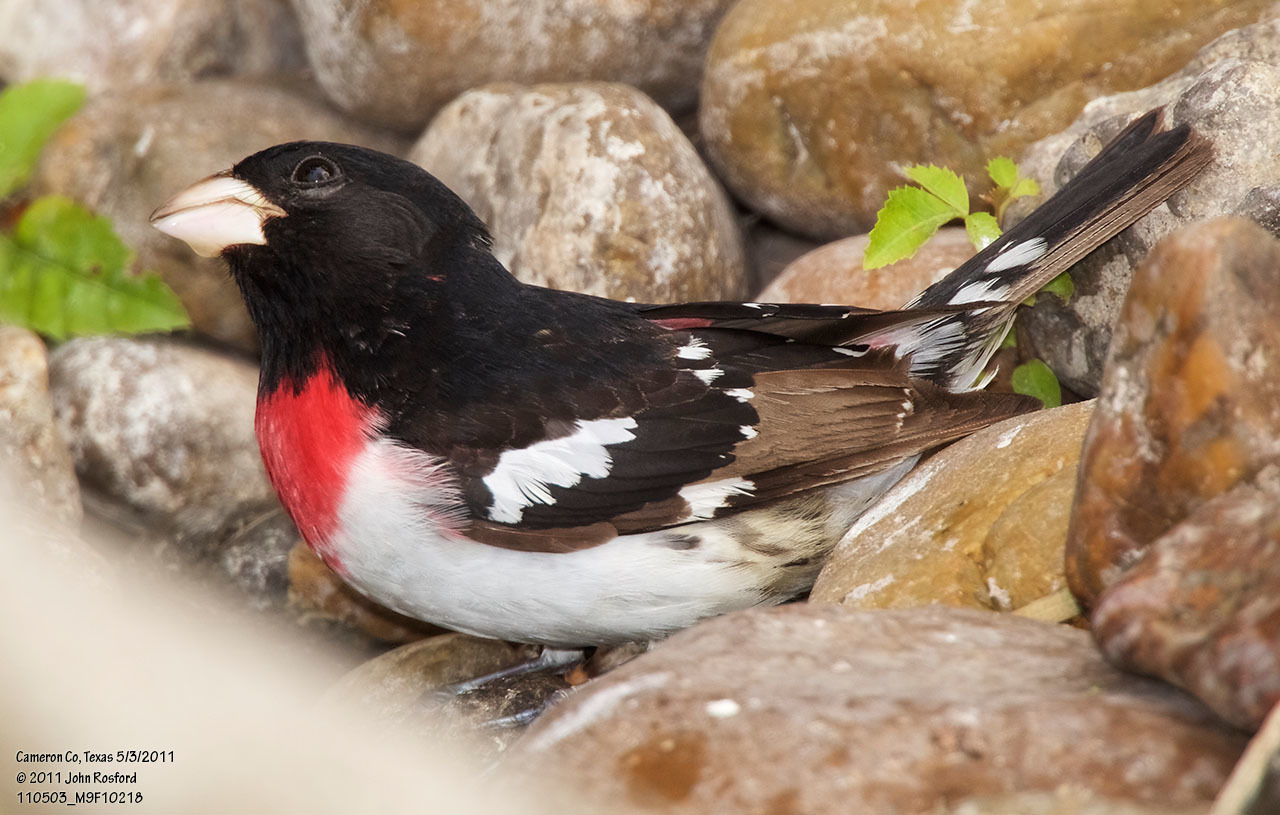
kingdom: Animalia
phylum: Chordata
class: Aves
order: Passeriformes
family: Cardinalidae
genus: Pheucticus
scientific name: Pheucticus ludovicianus
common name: Rose-breasted grosbeak
